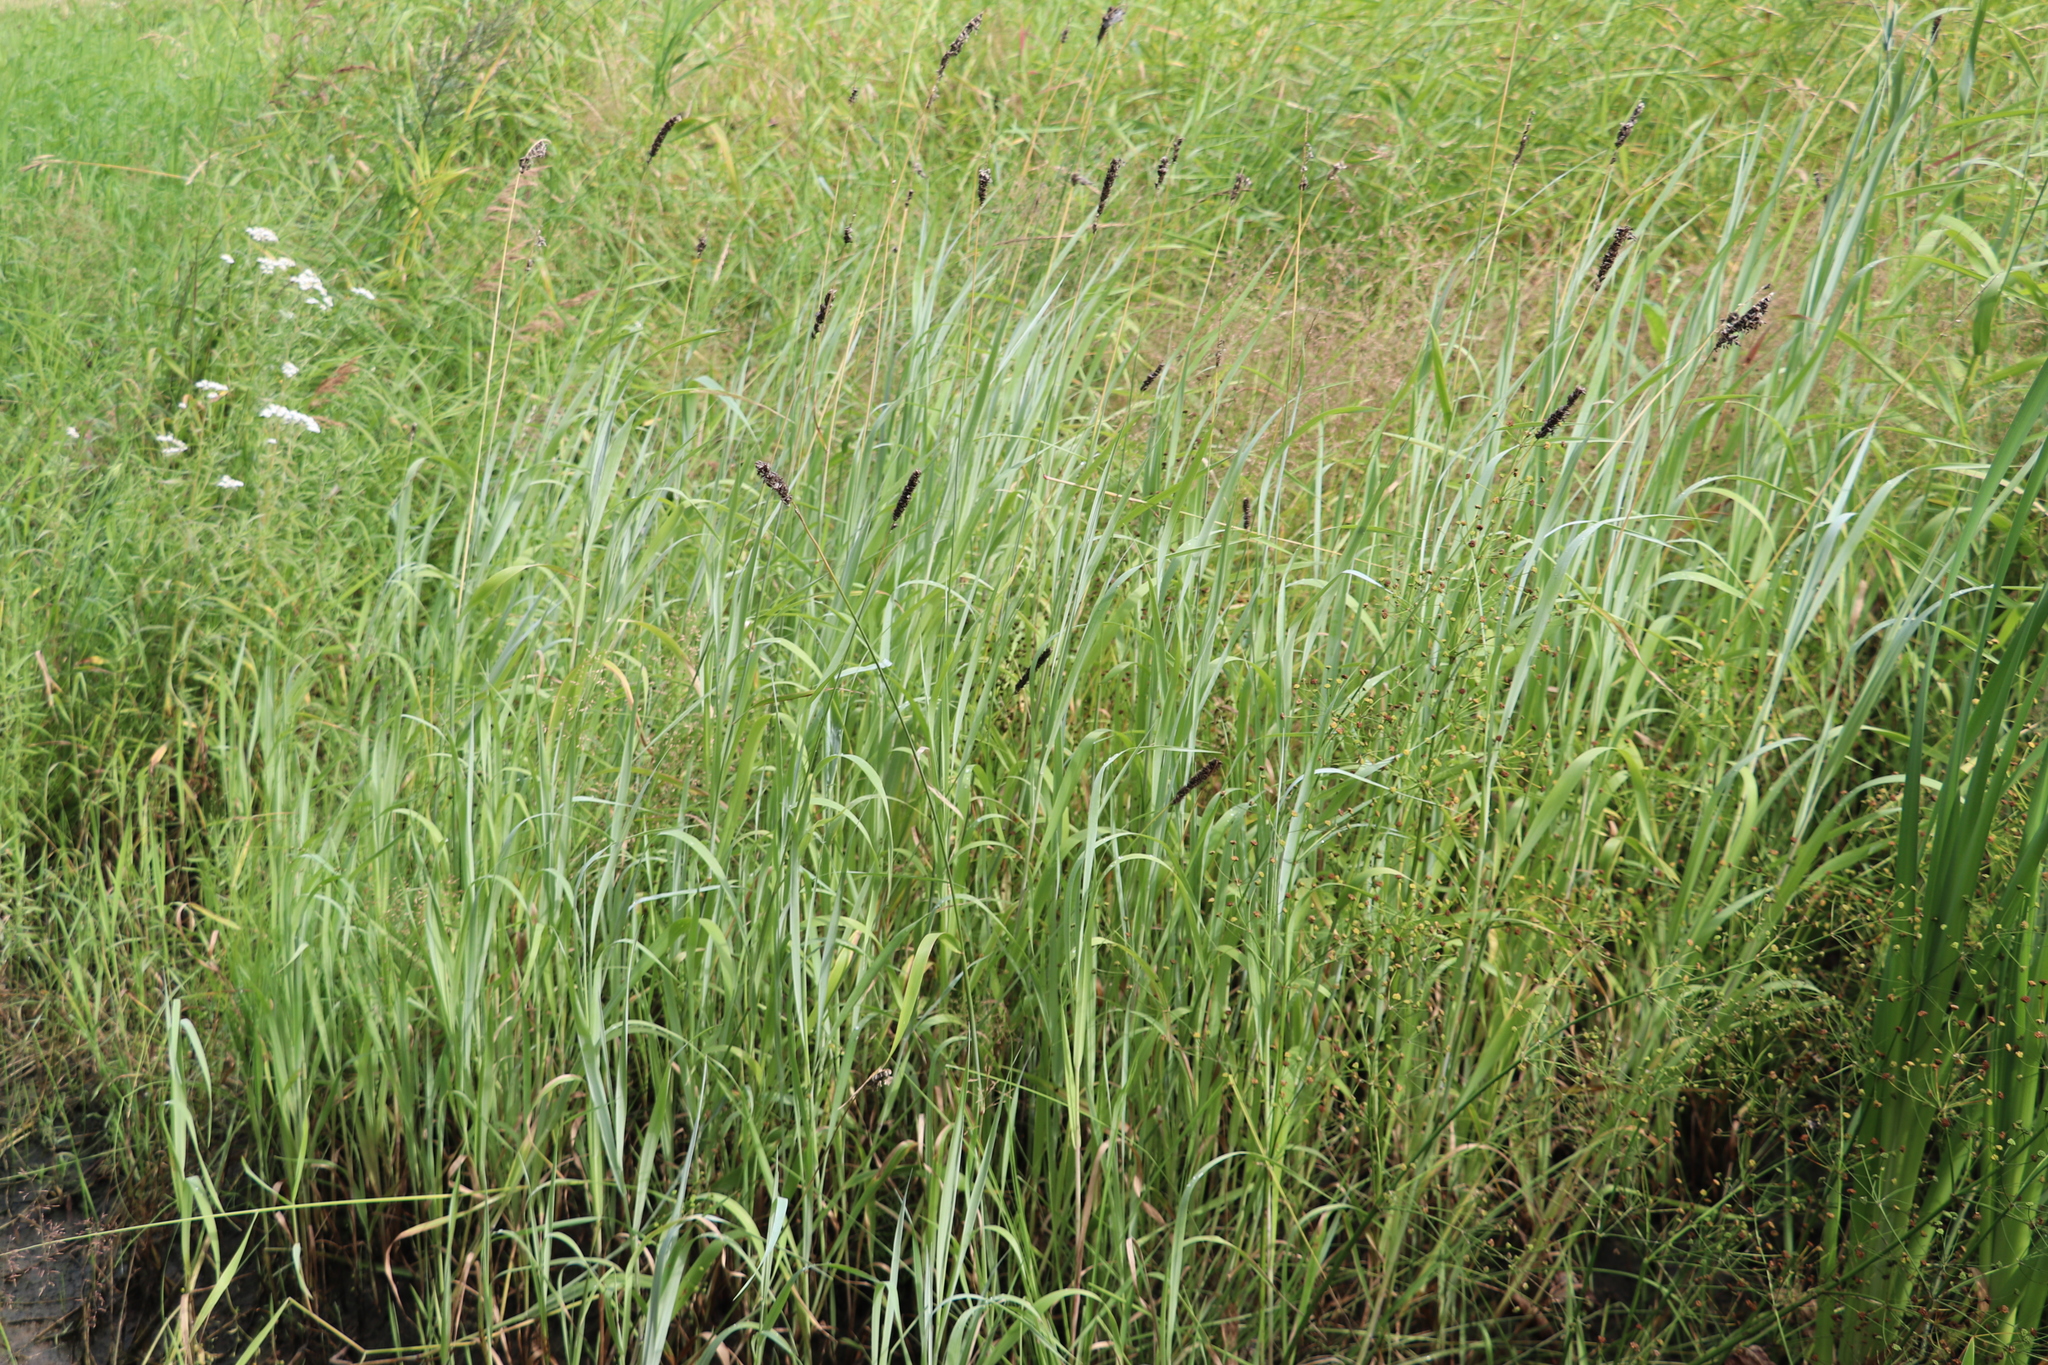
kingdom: Plantae
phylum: Tracheophyta
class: Liliopsida
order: Poales
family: Poaceae
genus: Alopecurus
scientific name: Alopecurus pratensis
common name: Meadow foxtail
